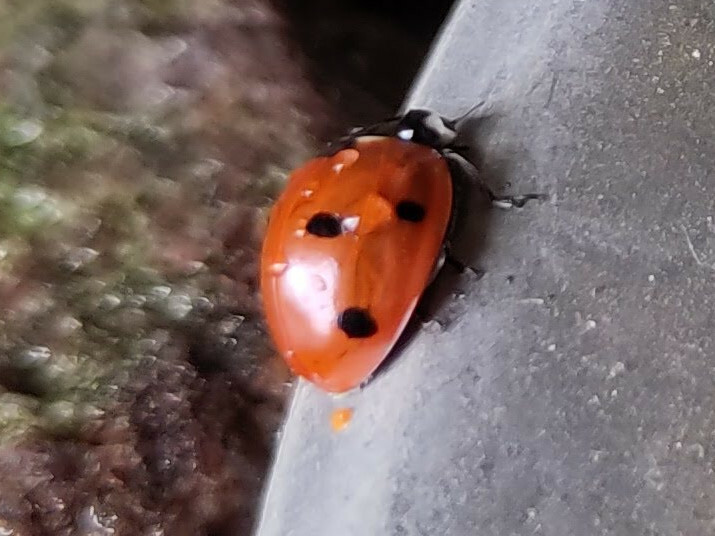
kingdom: Animalia
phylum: Arthropoda
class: Insecta
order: Coleoptera
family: Coccinellidae
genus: Coccinella
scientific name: Coccinella septempunctata
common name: Sevenspotted lady beetle
